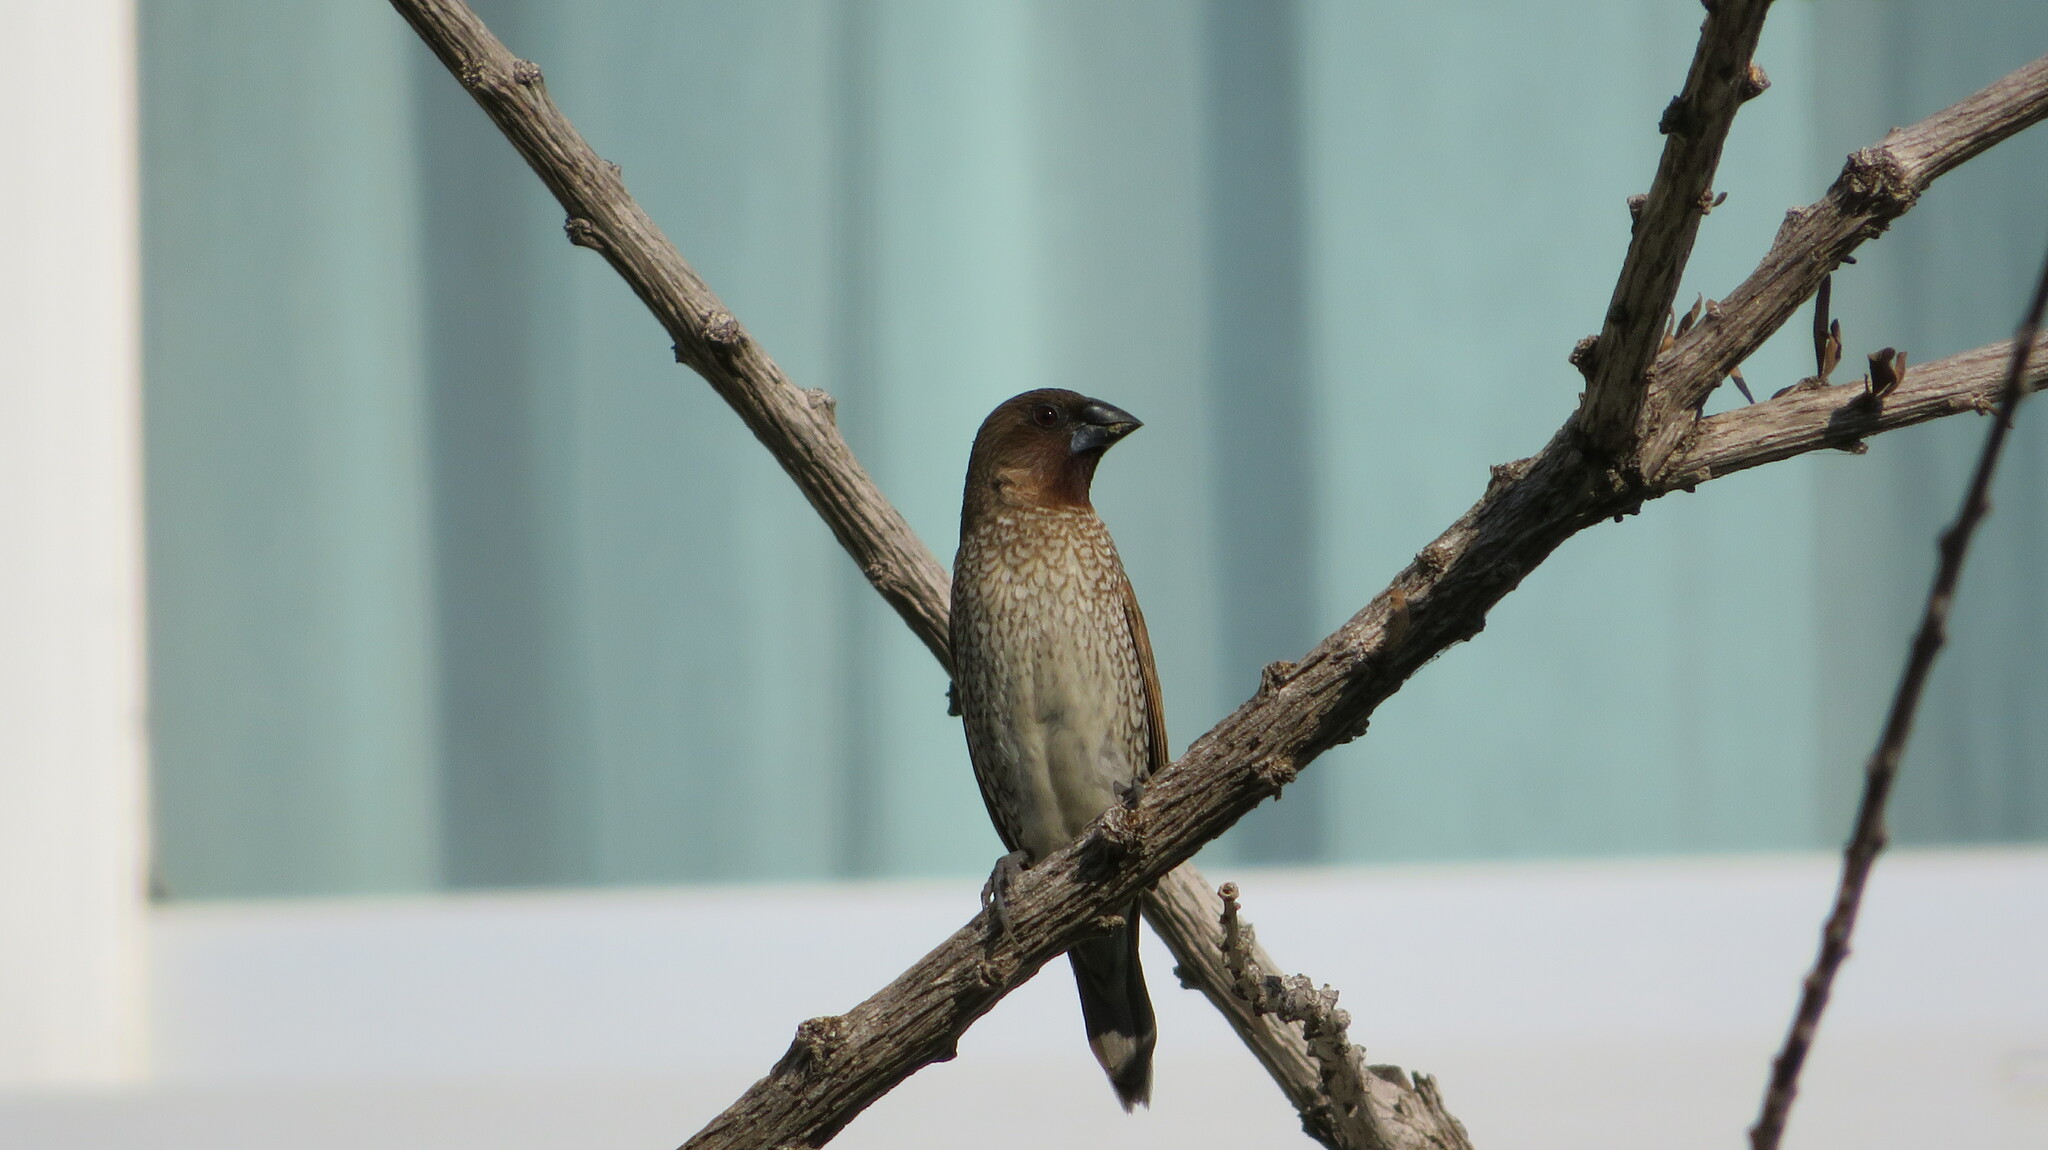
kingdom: Animalia
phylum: Chordata
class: Aves
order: Passeriformes
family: Estrildidae
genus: Lonchura
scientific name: Lonchura punctulata
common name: Scaly-breasted munia
